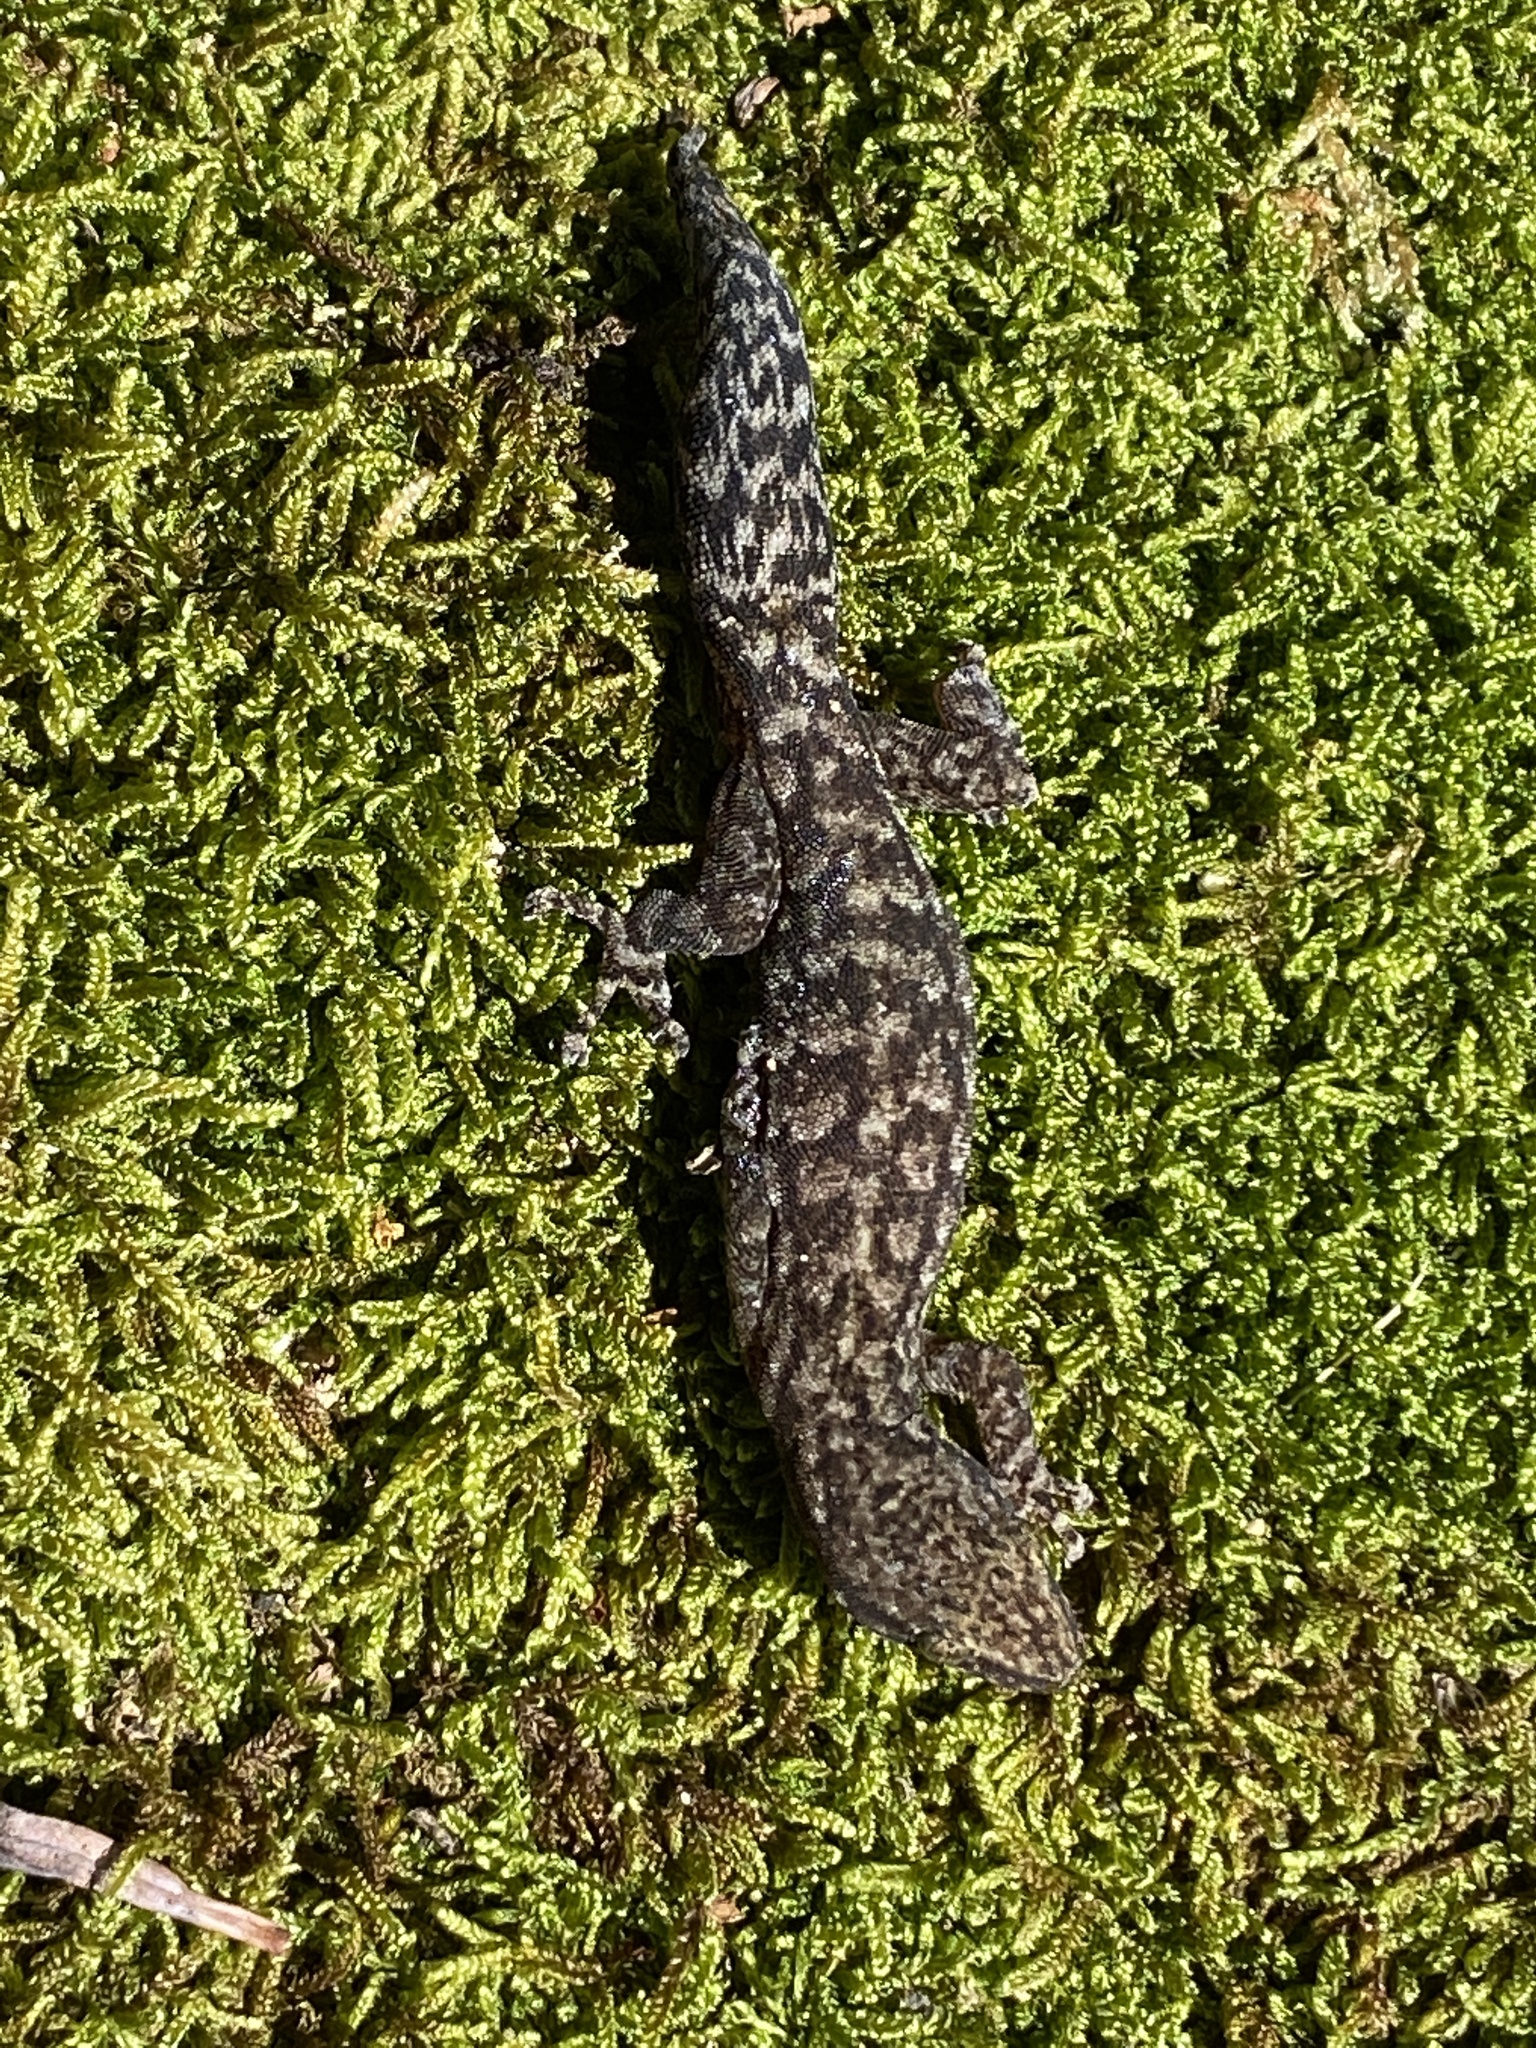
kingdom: Animalia
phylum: Chordata
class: Squamata
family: Gekkonidae
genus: Afrogecko
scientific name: Afrogecko porphyreus
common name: Marbled leaf-toed gecko
